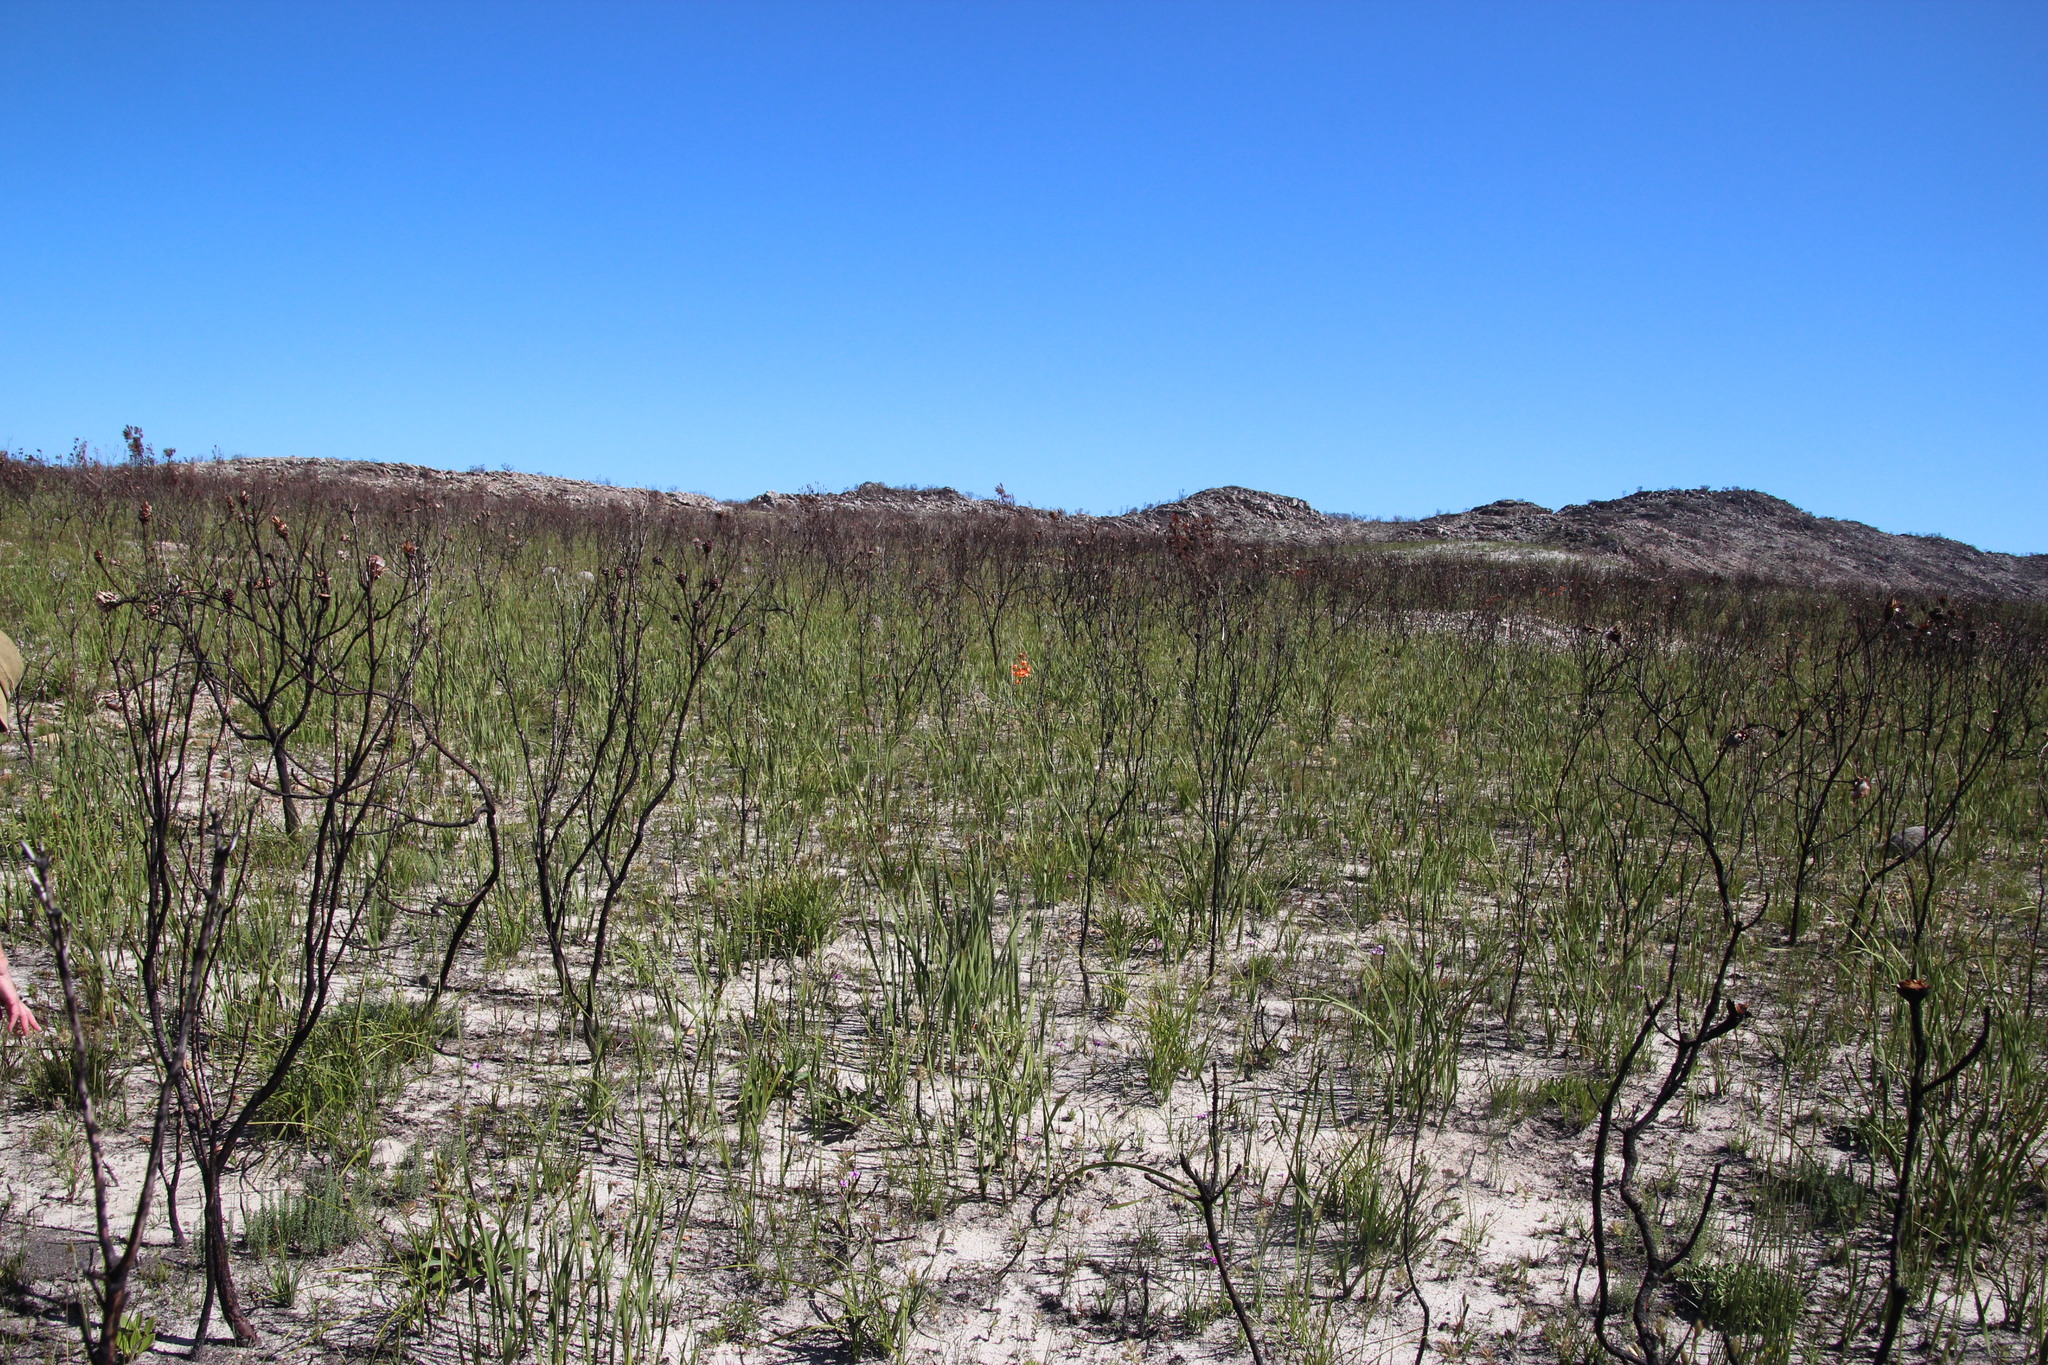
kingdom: Plantae
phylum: Tracheophyta
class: Liliopsida
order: Asparagales
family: Iridaceae
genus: Pillansia
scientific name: Pillansia templemannii
